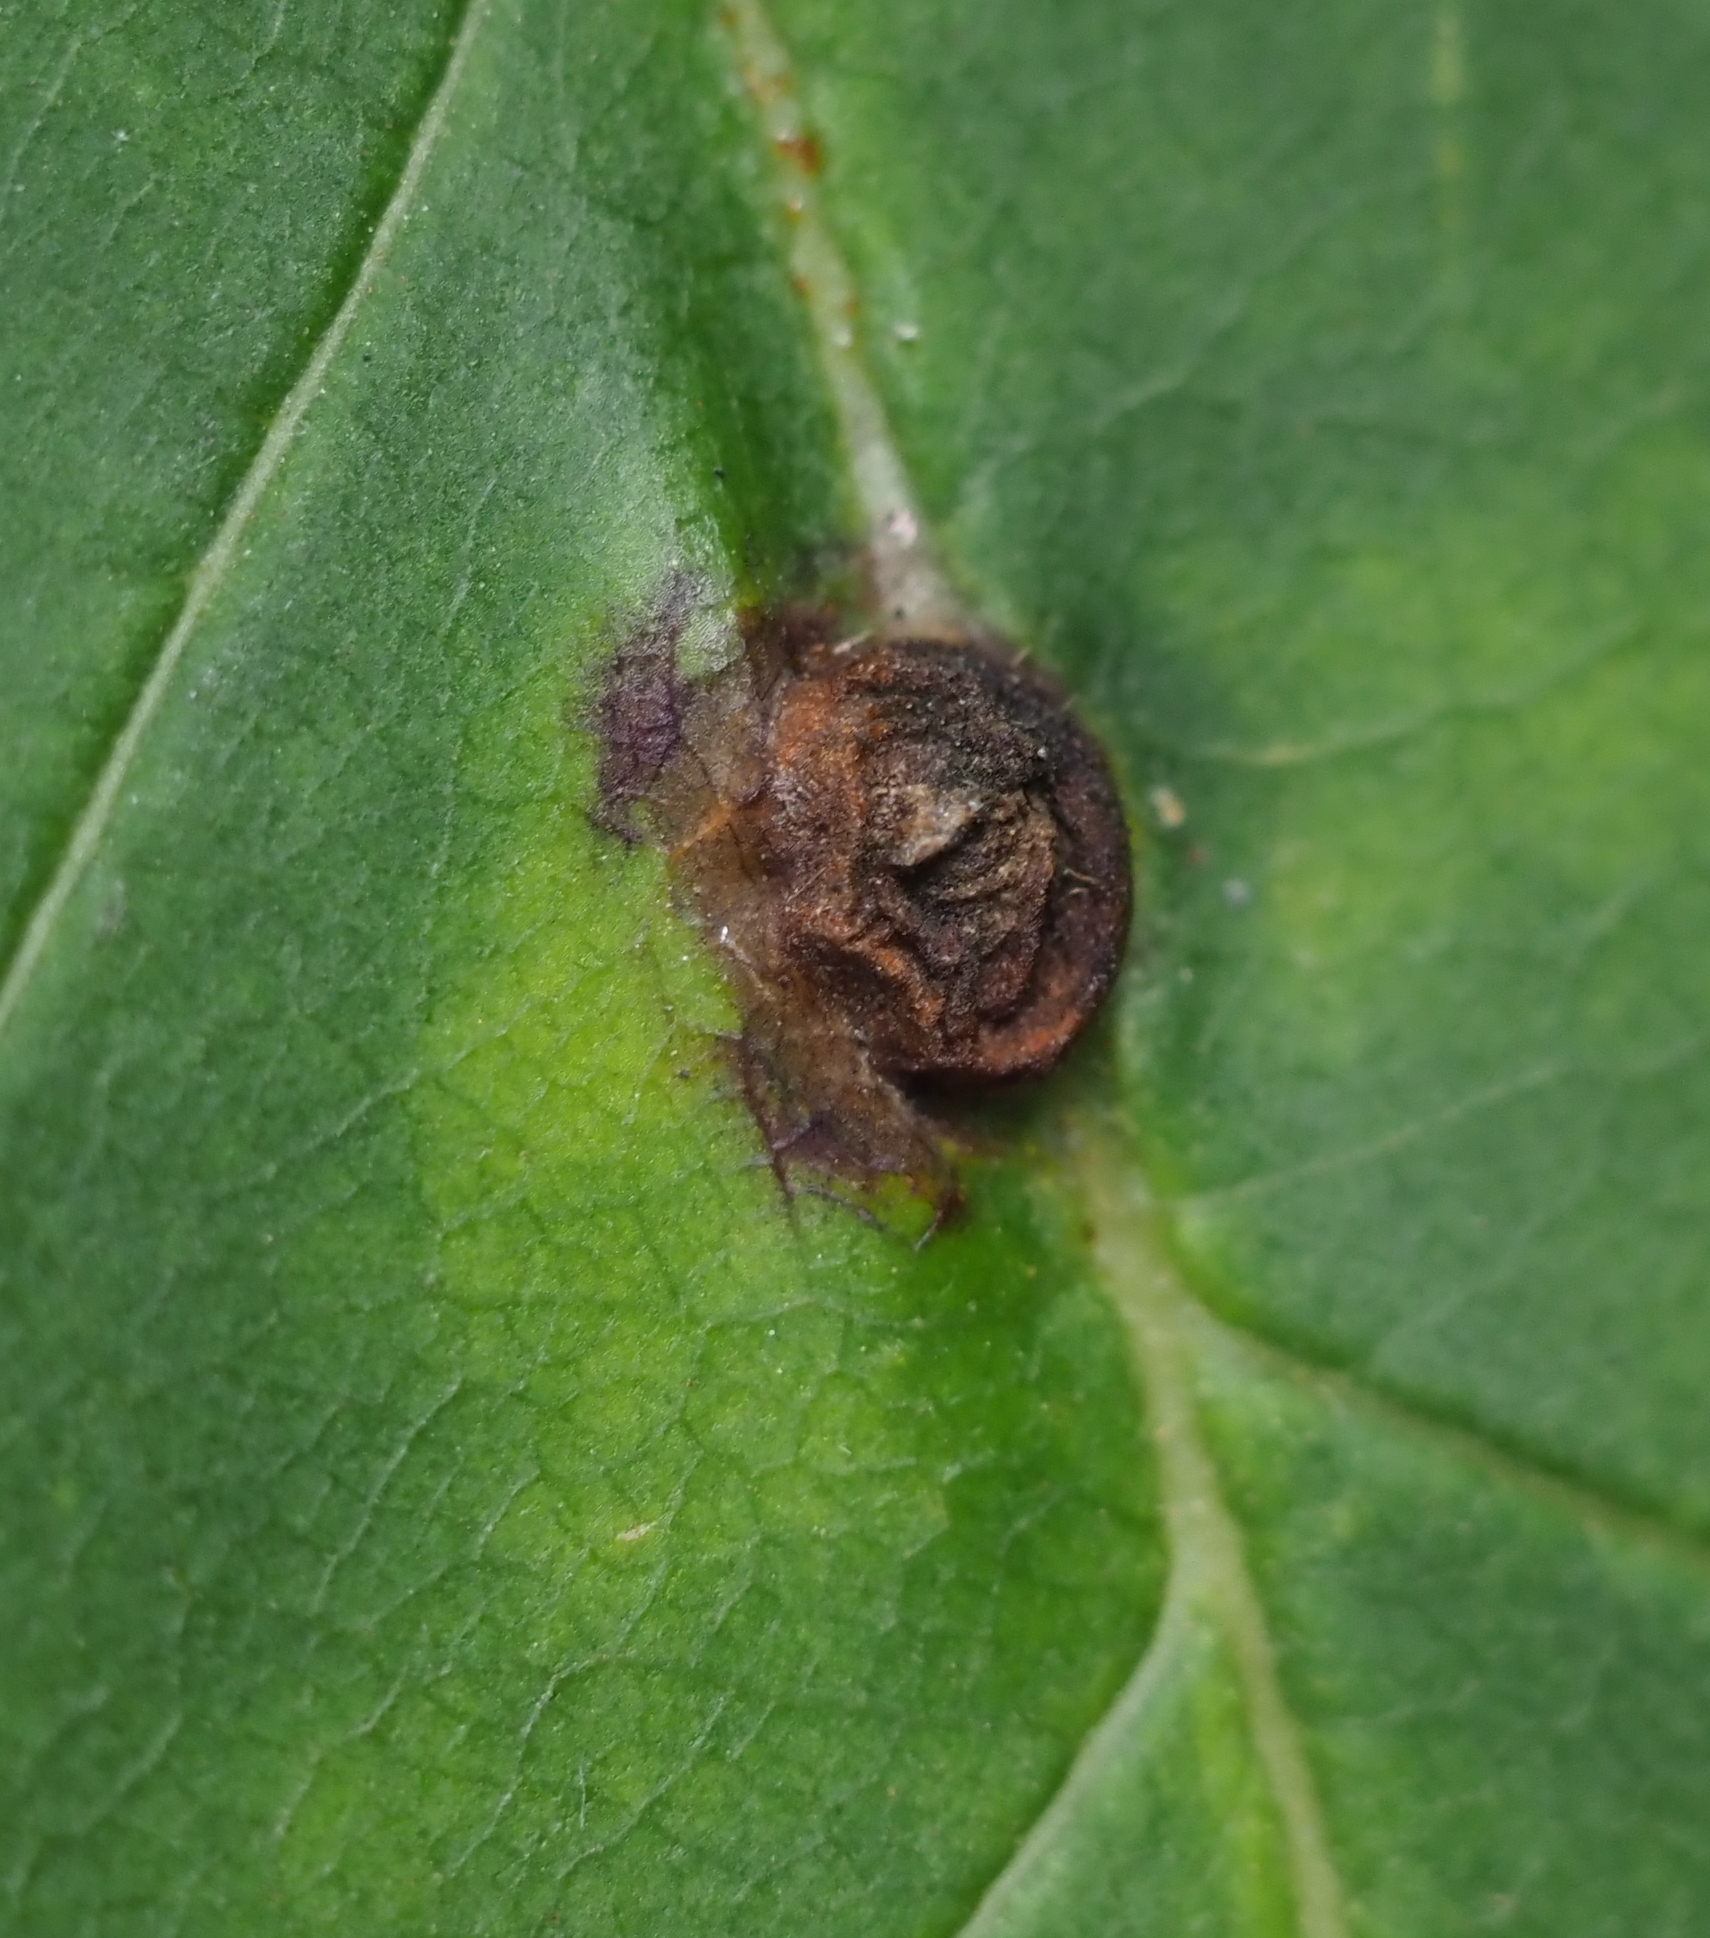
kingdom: Animalia
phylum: Arthropoda
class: Insecta
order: Diptera
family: Cecidomyiidae
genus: Dasineura
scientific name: Dasineura pellex
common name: Ash bullet gall midge
